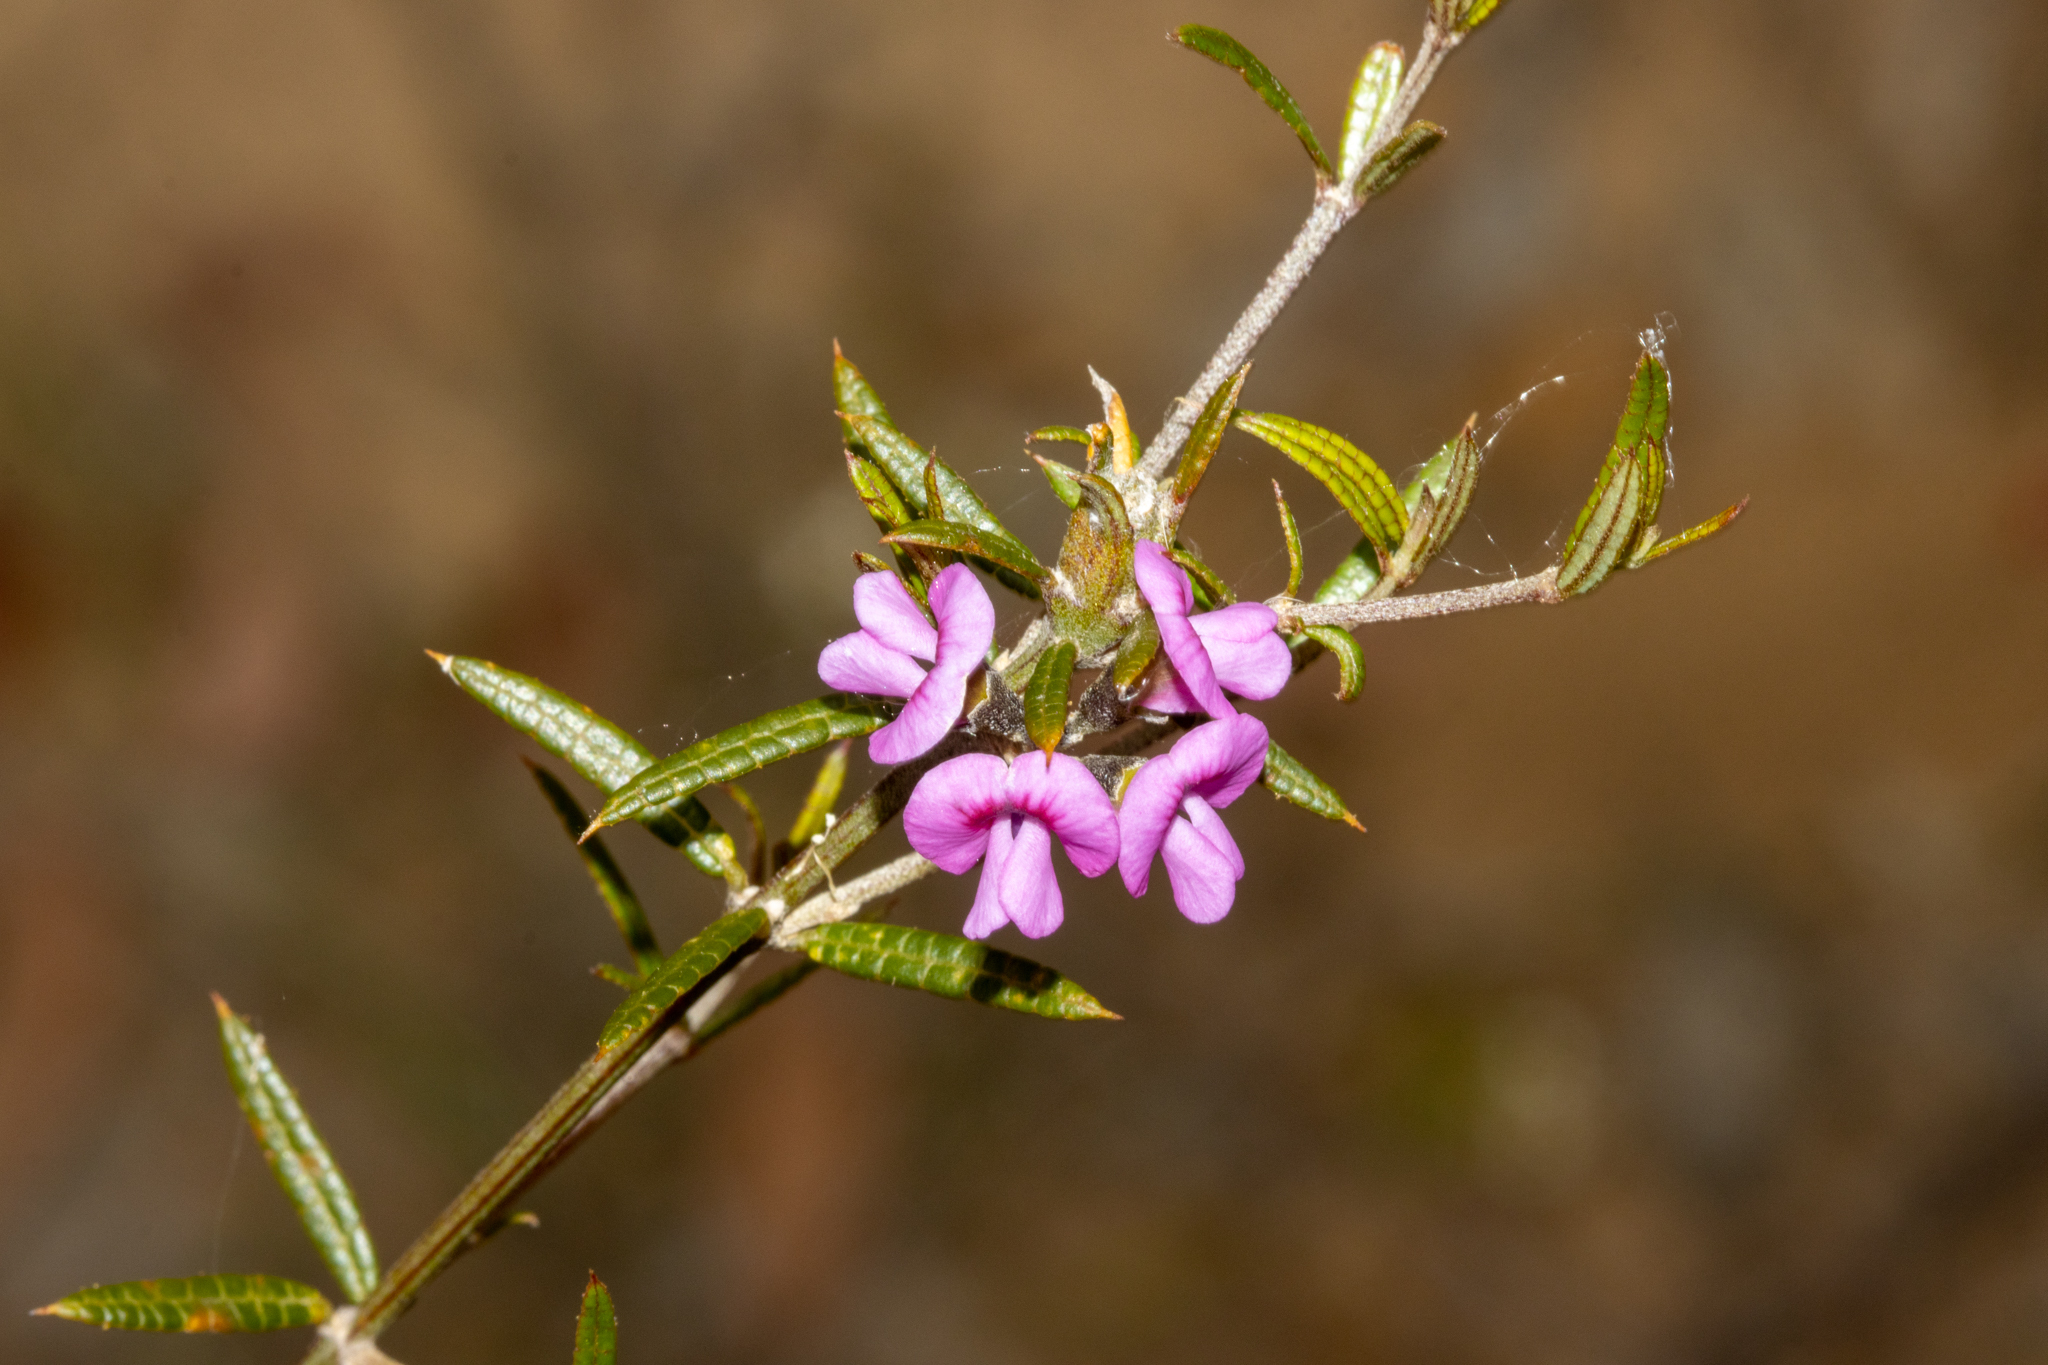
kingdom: Plantae
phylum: Tracheophyta
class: Magnoliopsida
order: Fabales
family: Fabaceae
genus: Mirbelia
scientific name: Mirbelia rubiifolia
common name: Heathy mirbelia
